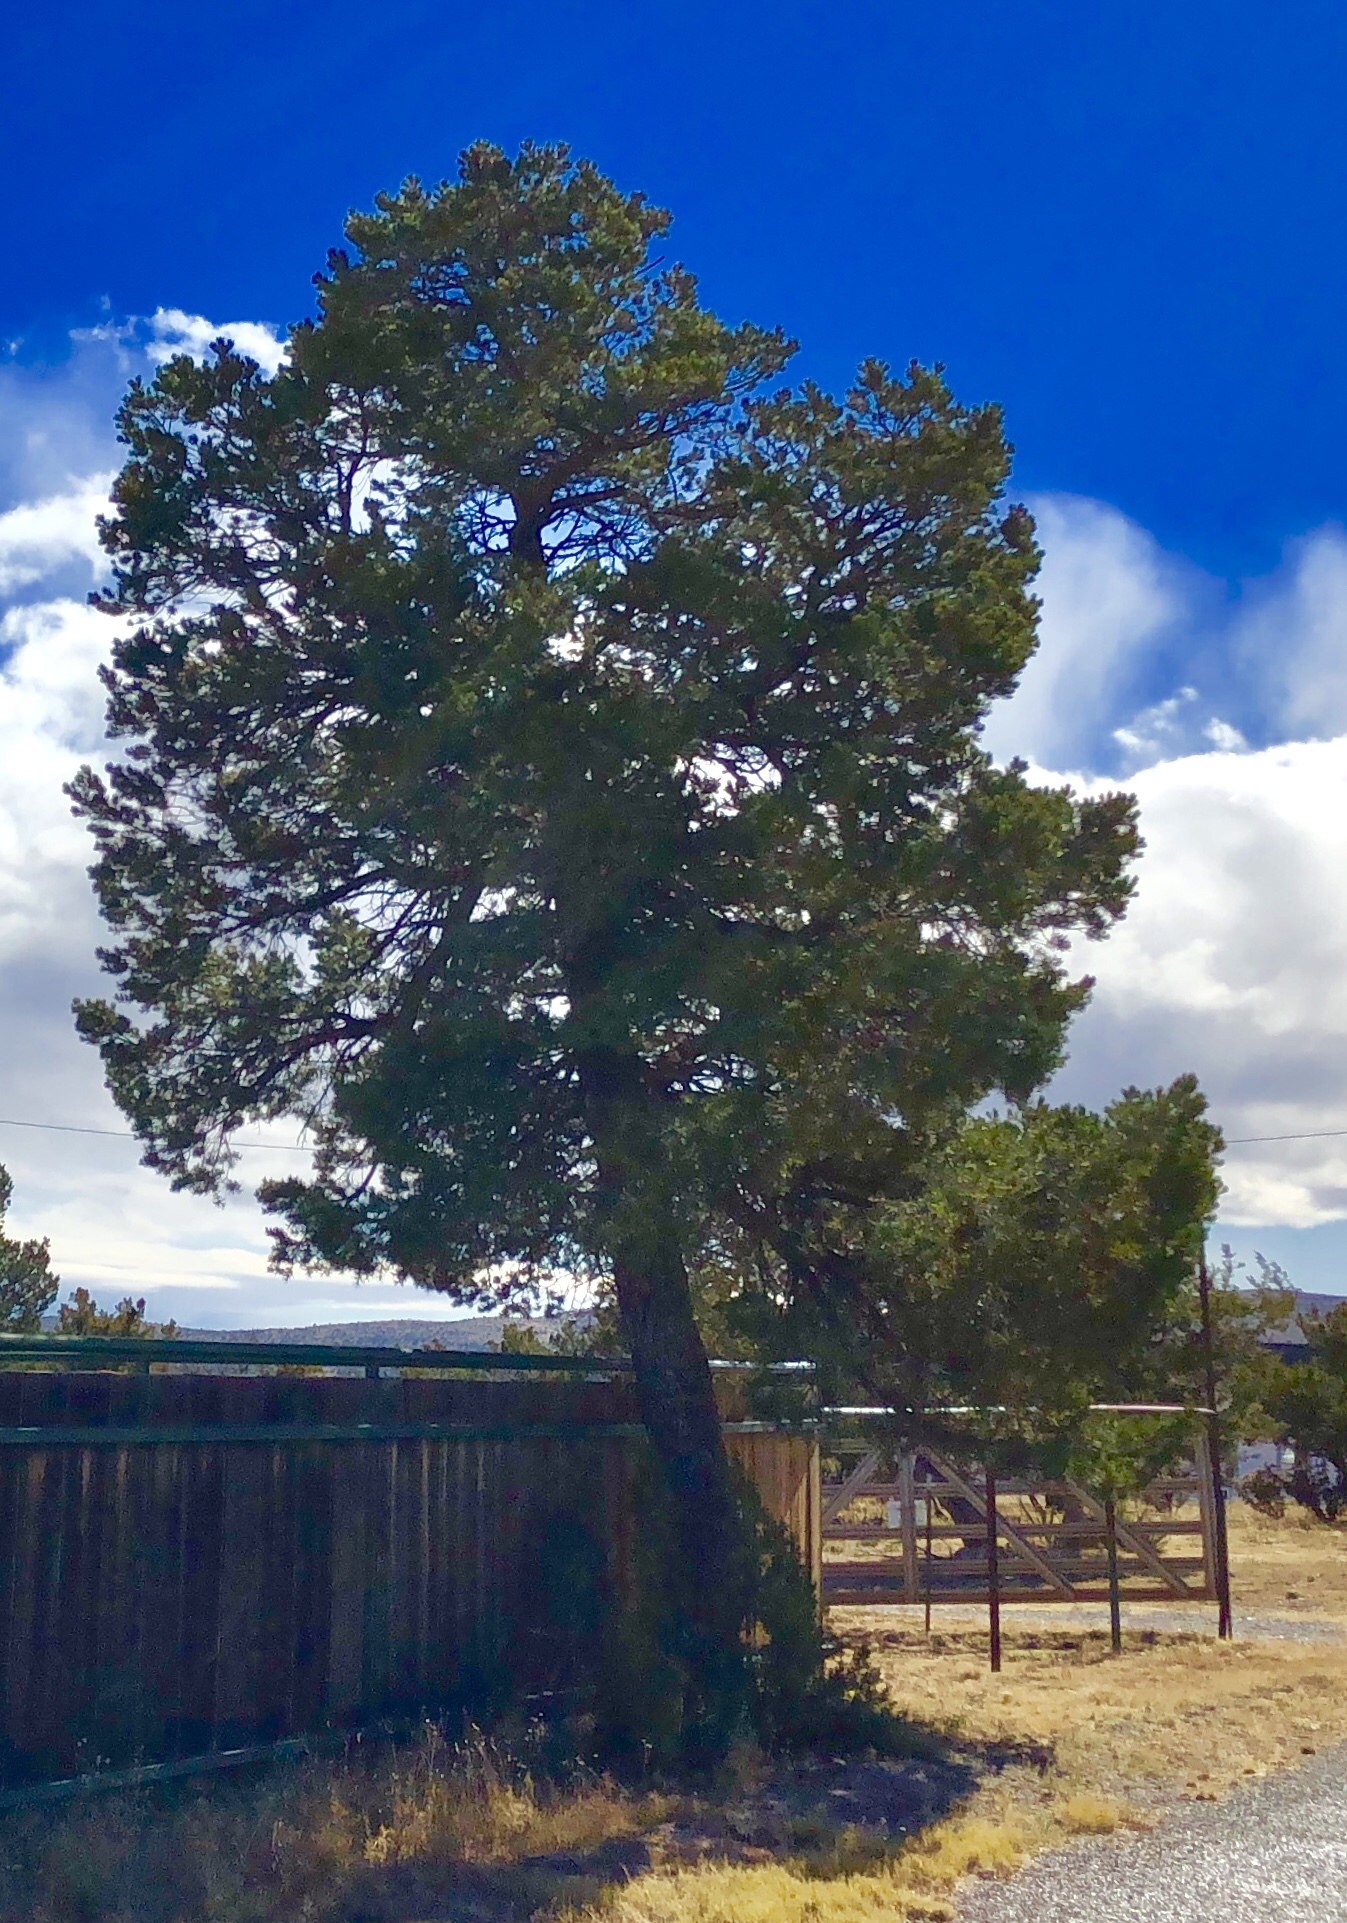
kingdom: Plantae
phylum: Tracheophyta
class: Pinopsida
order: Pinales
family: Pinaceae
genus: Pinus
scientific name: Pinus edulis
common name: Colorado pinyon
